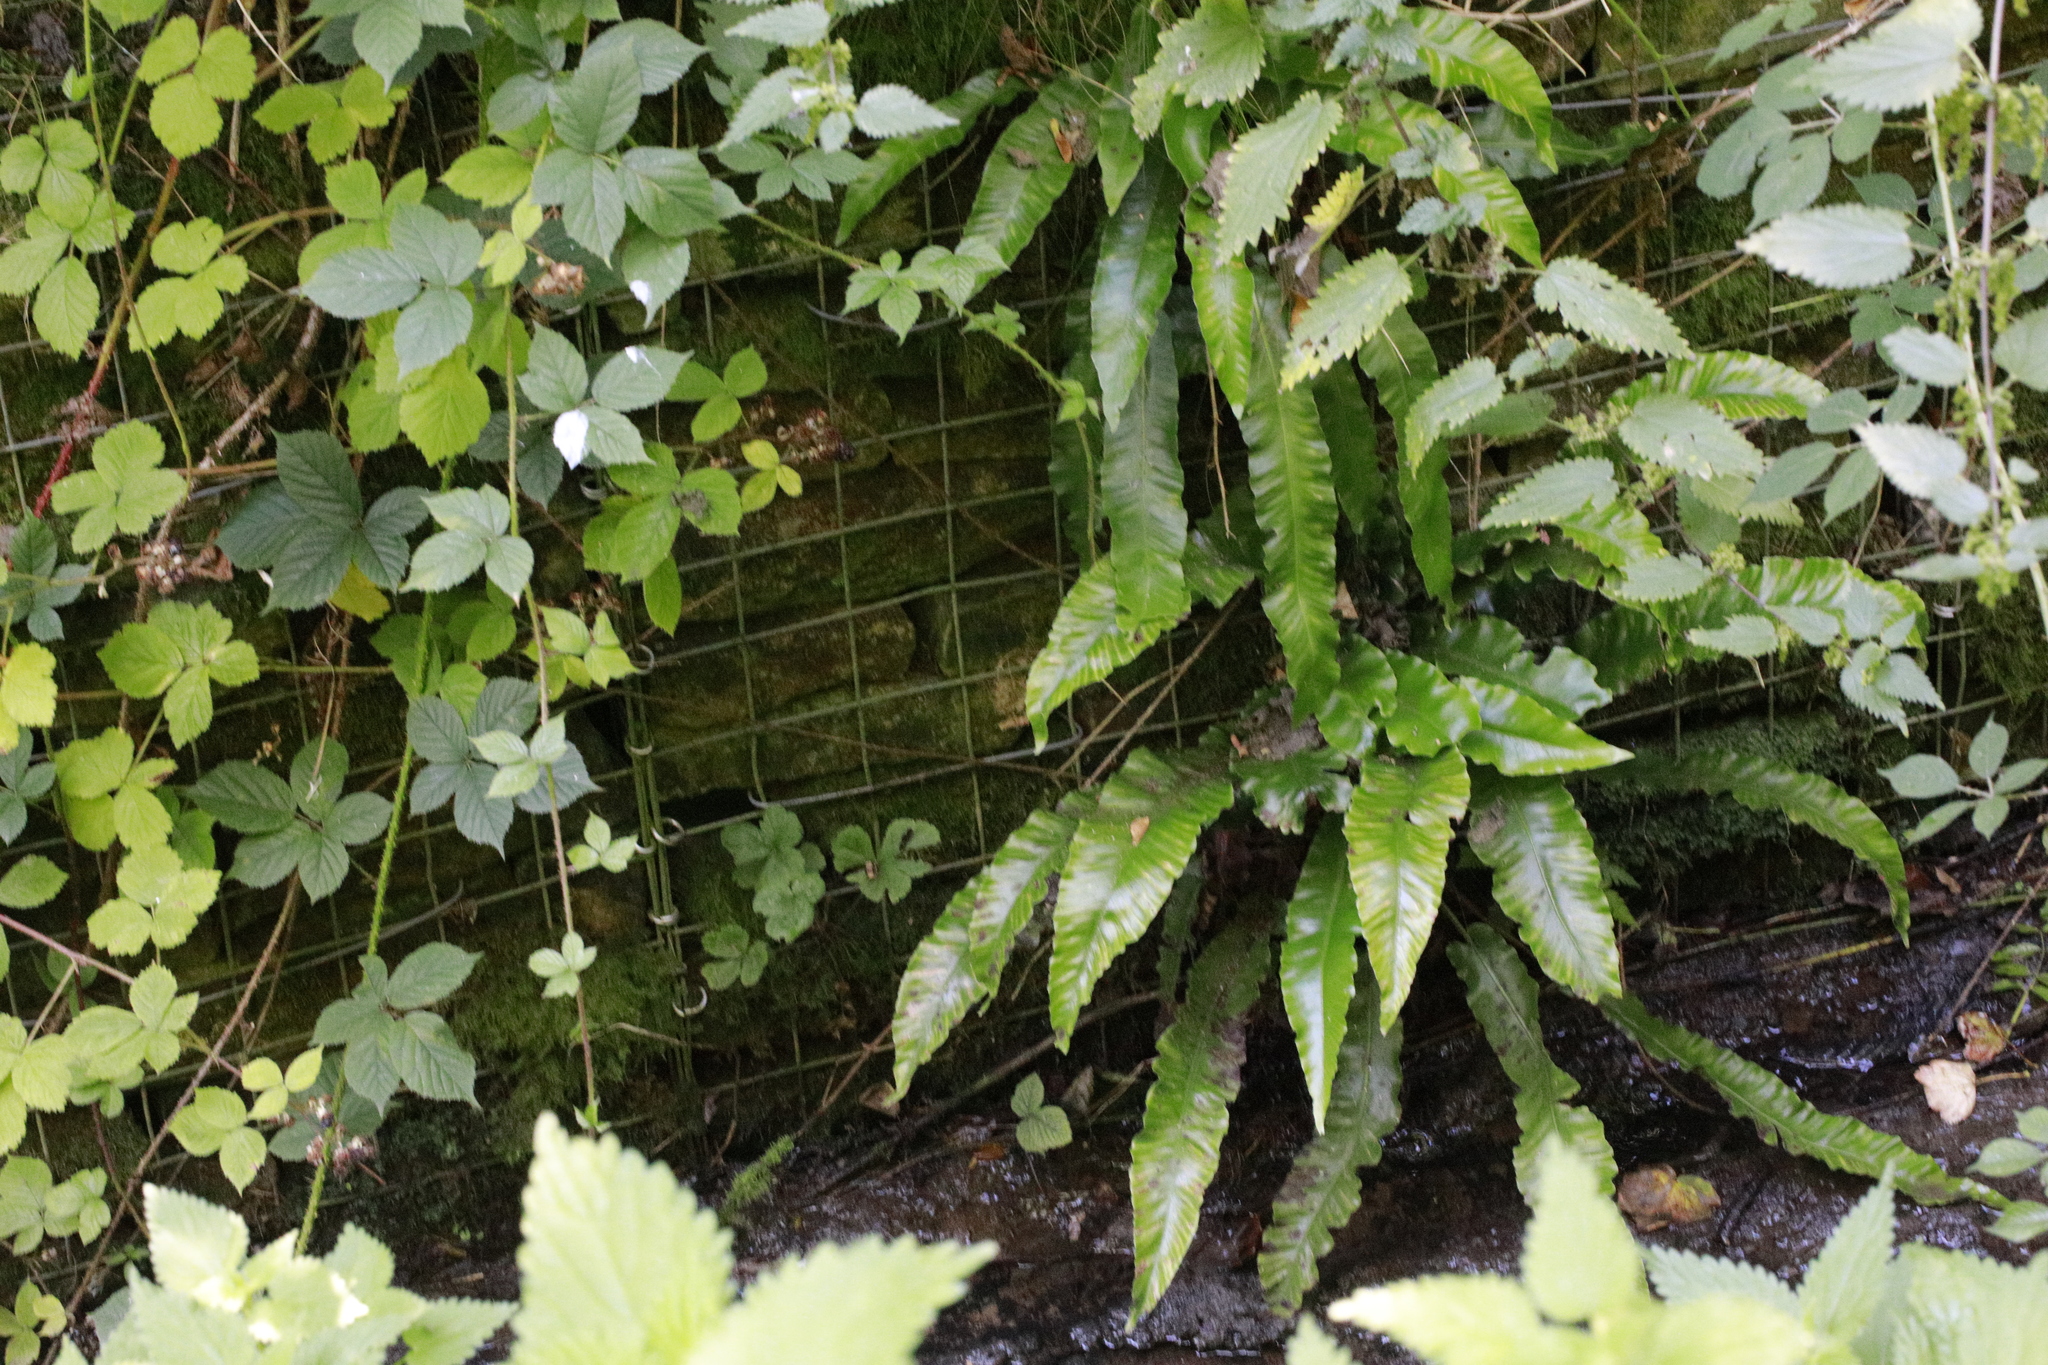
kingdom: Plantae
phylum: Tracheophyta
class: Polypodiopsida
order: Polypodiales
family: Aspleniaceae
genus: Asplenium
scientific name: Asplenium scolopendrium
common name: Hart's-tongue fern
